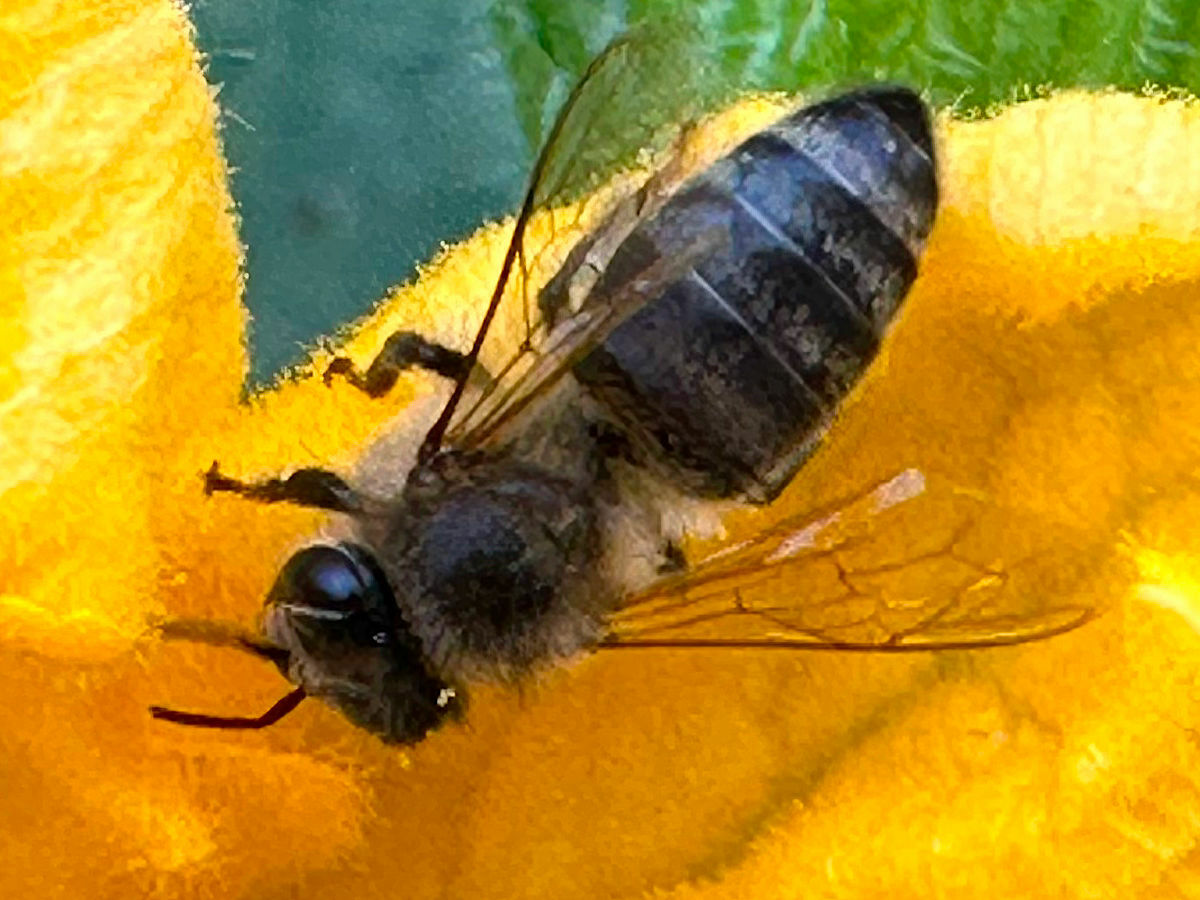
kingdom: Animalia
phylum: Arthropoda
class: Insecta
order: Hymenoptera
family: Apidae
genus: Apis
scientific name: Apis mellifera
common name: Honey bee
